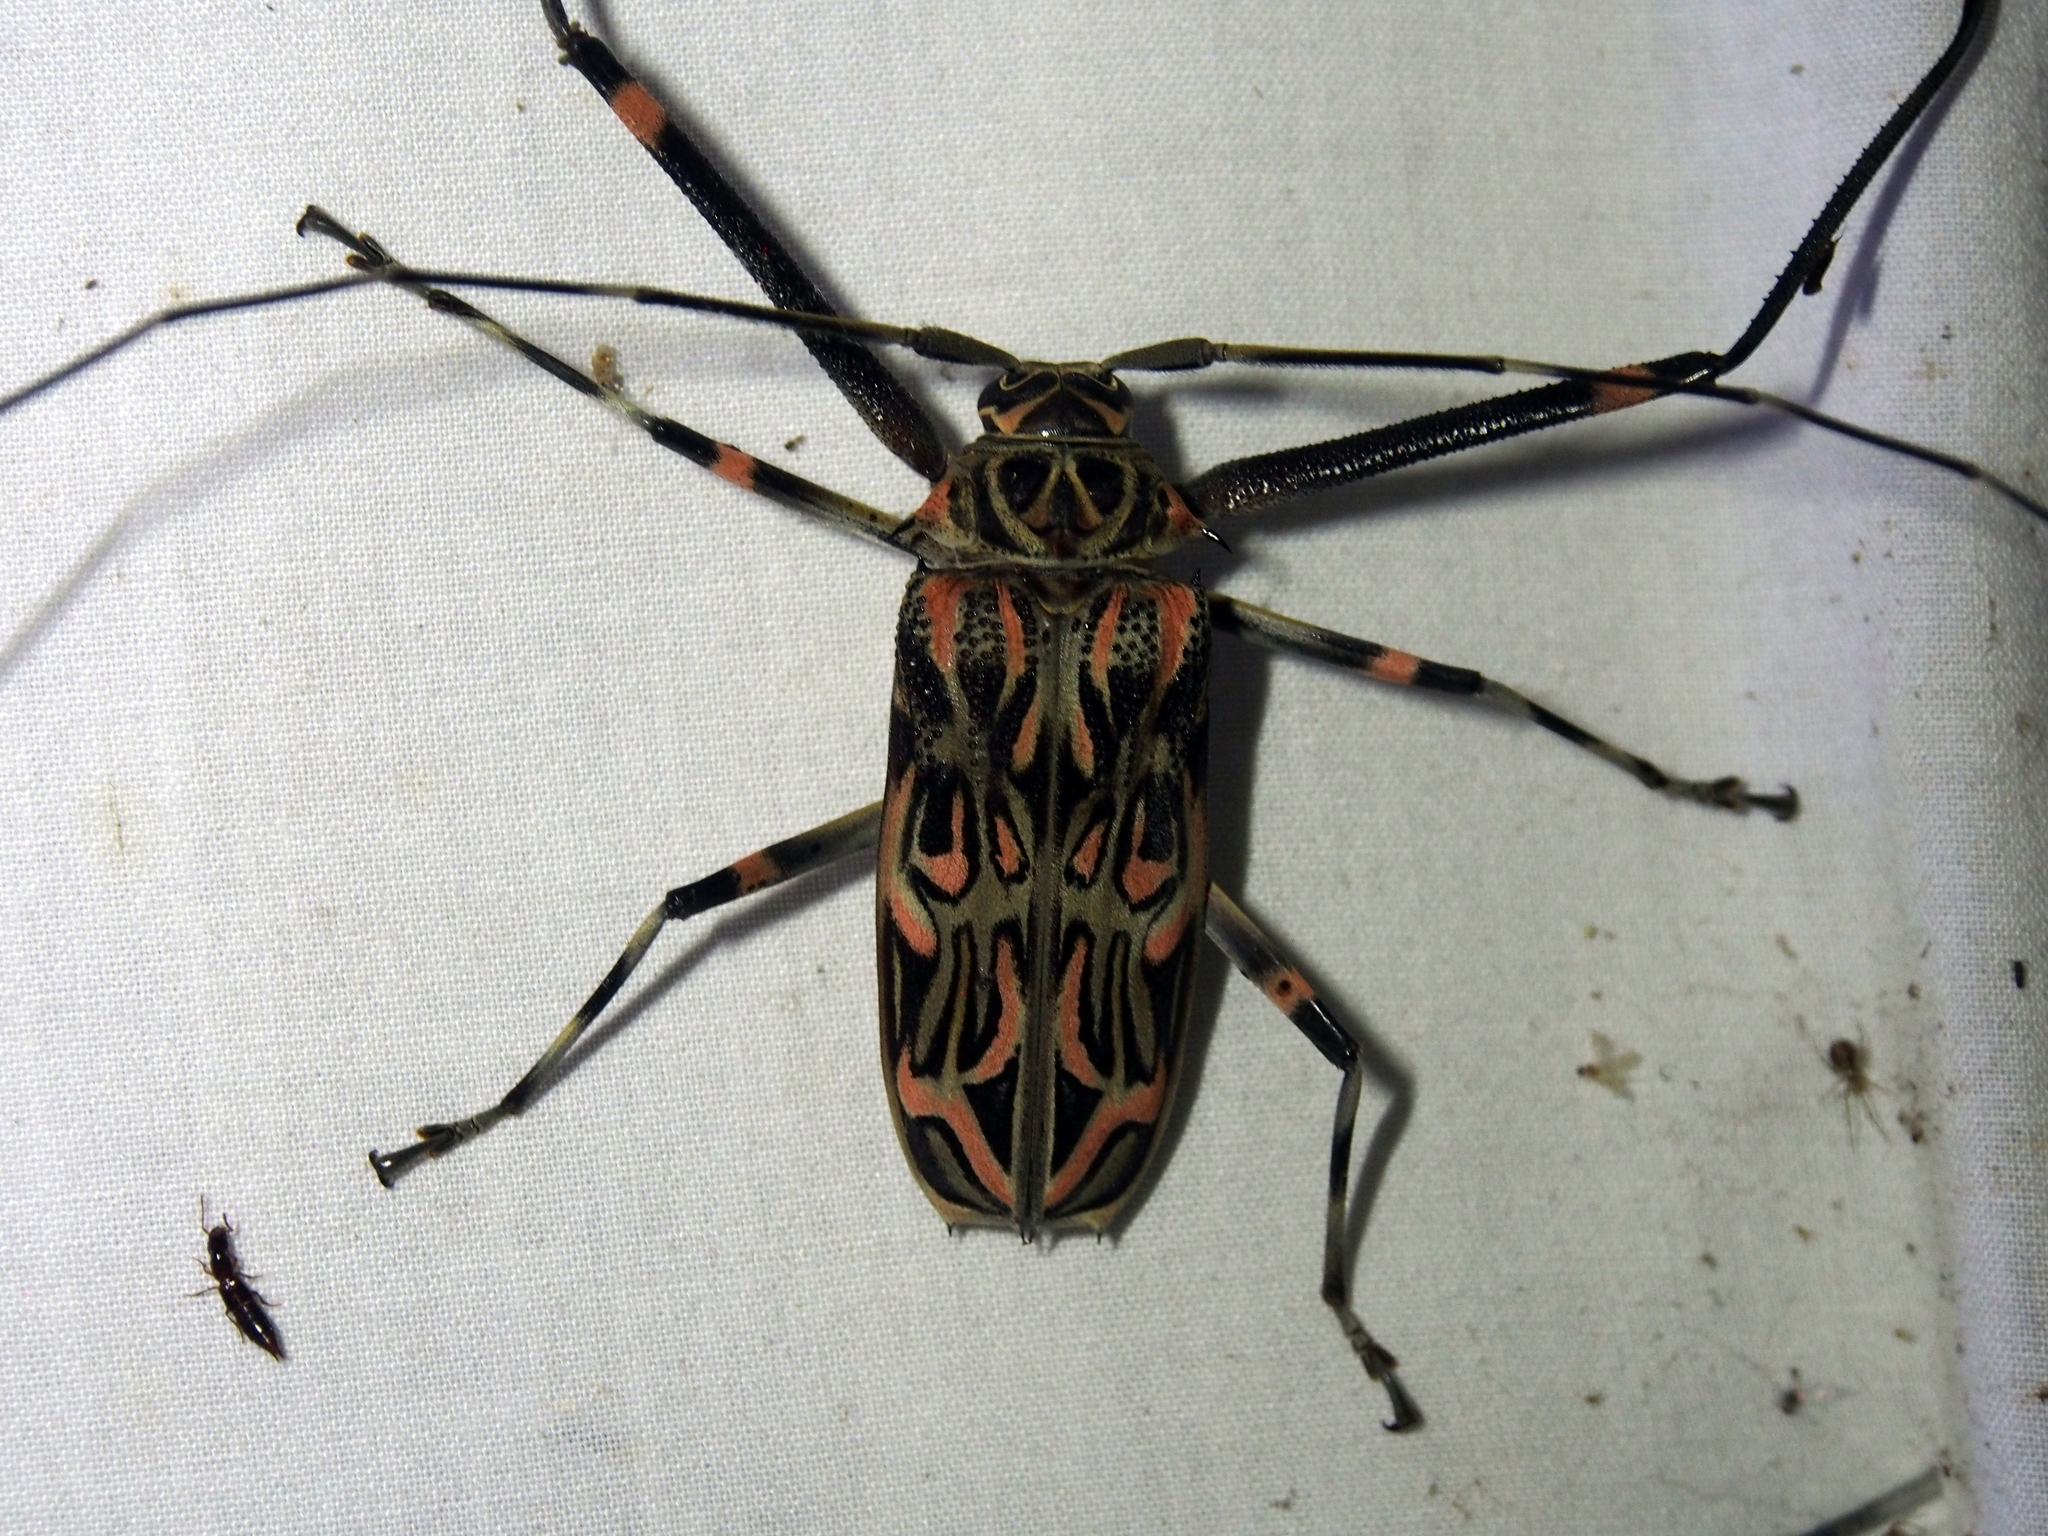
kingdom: Animalia
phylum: Arthropoda
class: Insecta
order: Coleoptera
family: Cerambycidae
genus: Acrocinus
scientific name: Acrocinus longimanus
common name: Arlequin
